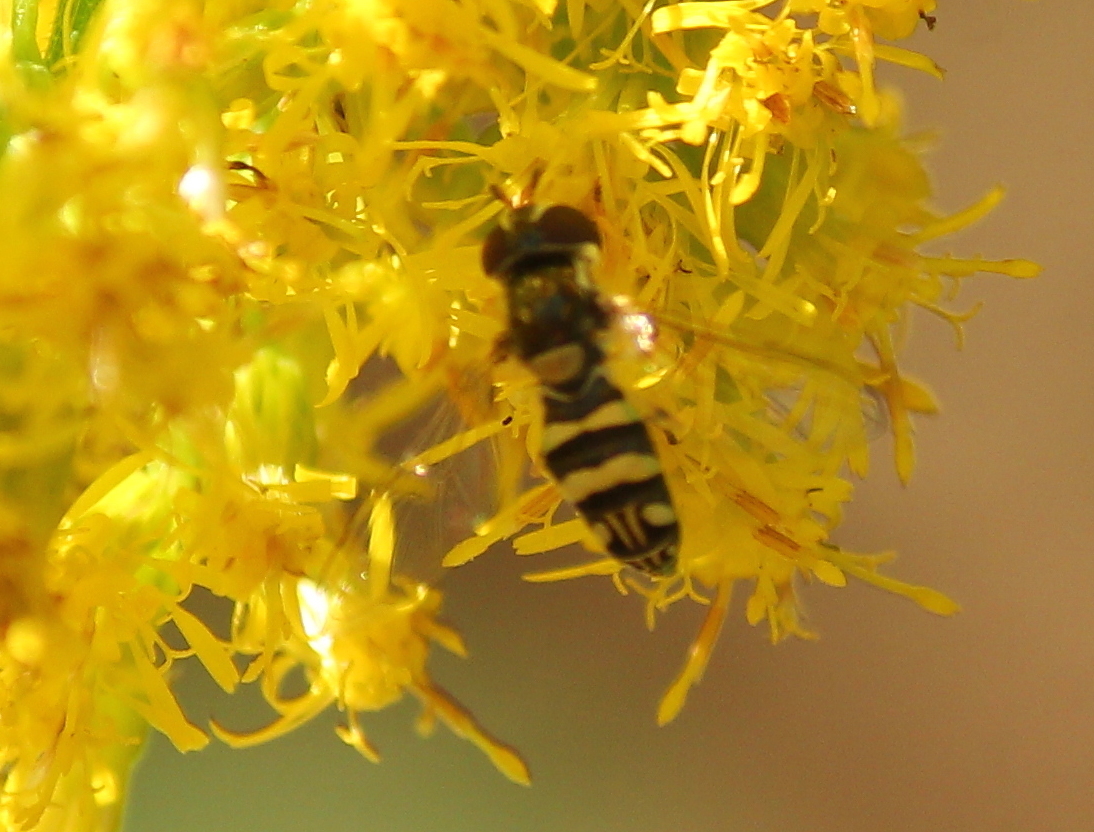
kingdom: Animalia
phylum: Arthropoda
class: Insecta
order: Diptera
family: Syrphidae
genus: Allograpta
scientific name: Allograpta exotica
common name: Syrphid fly
